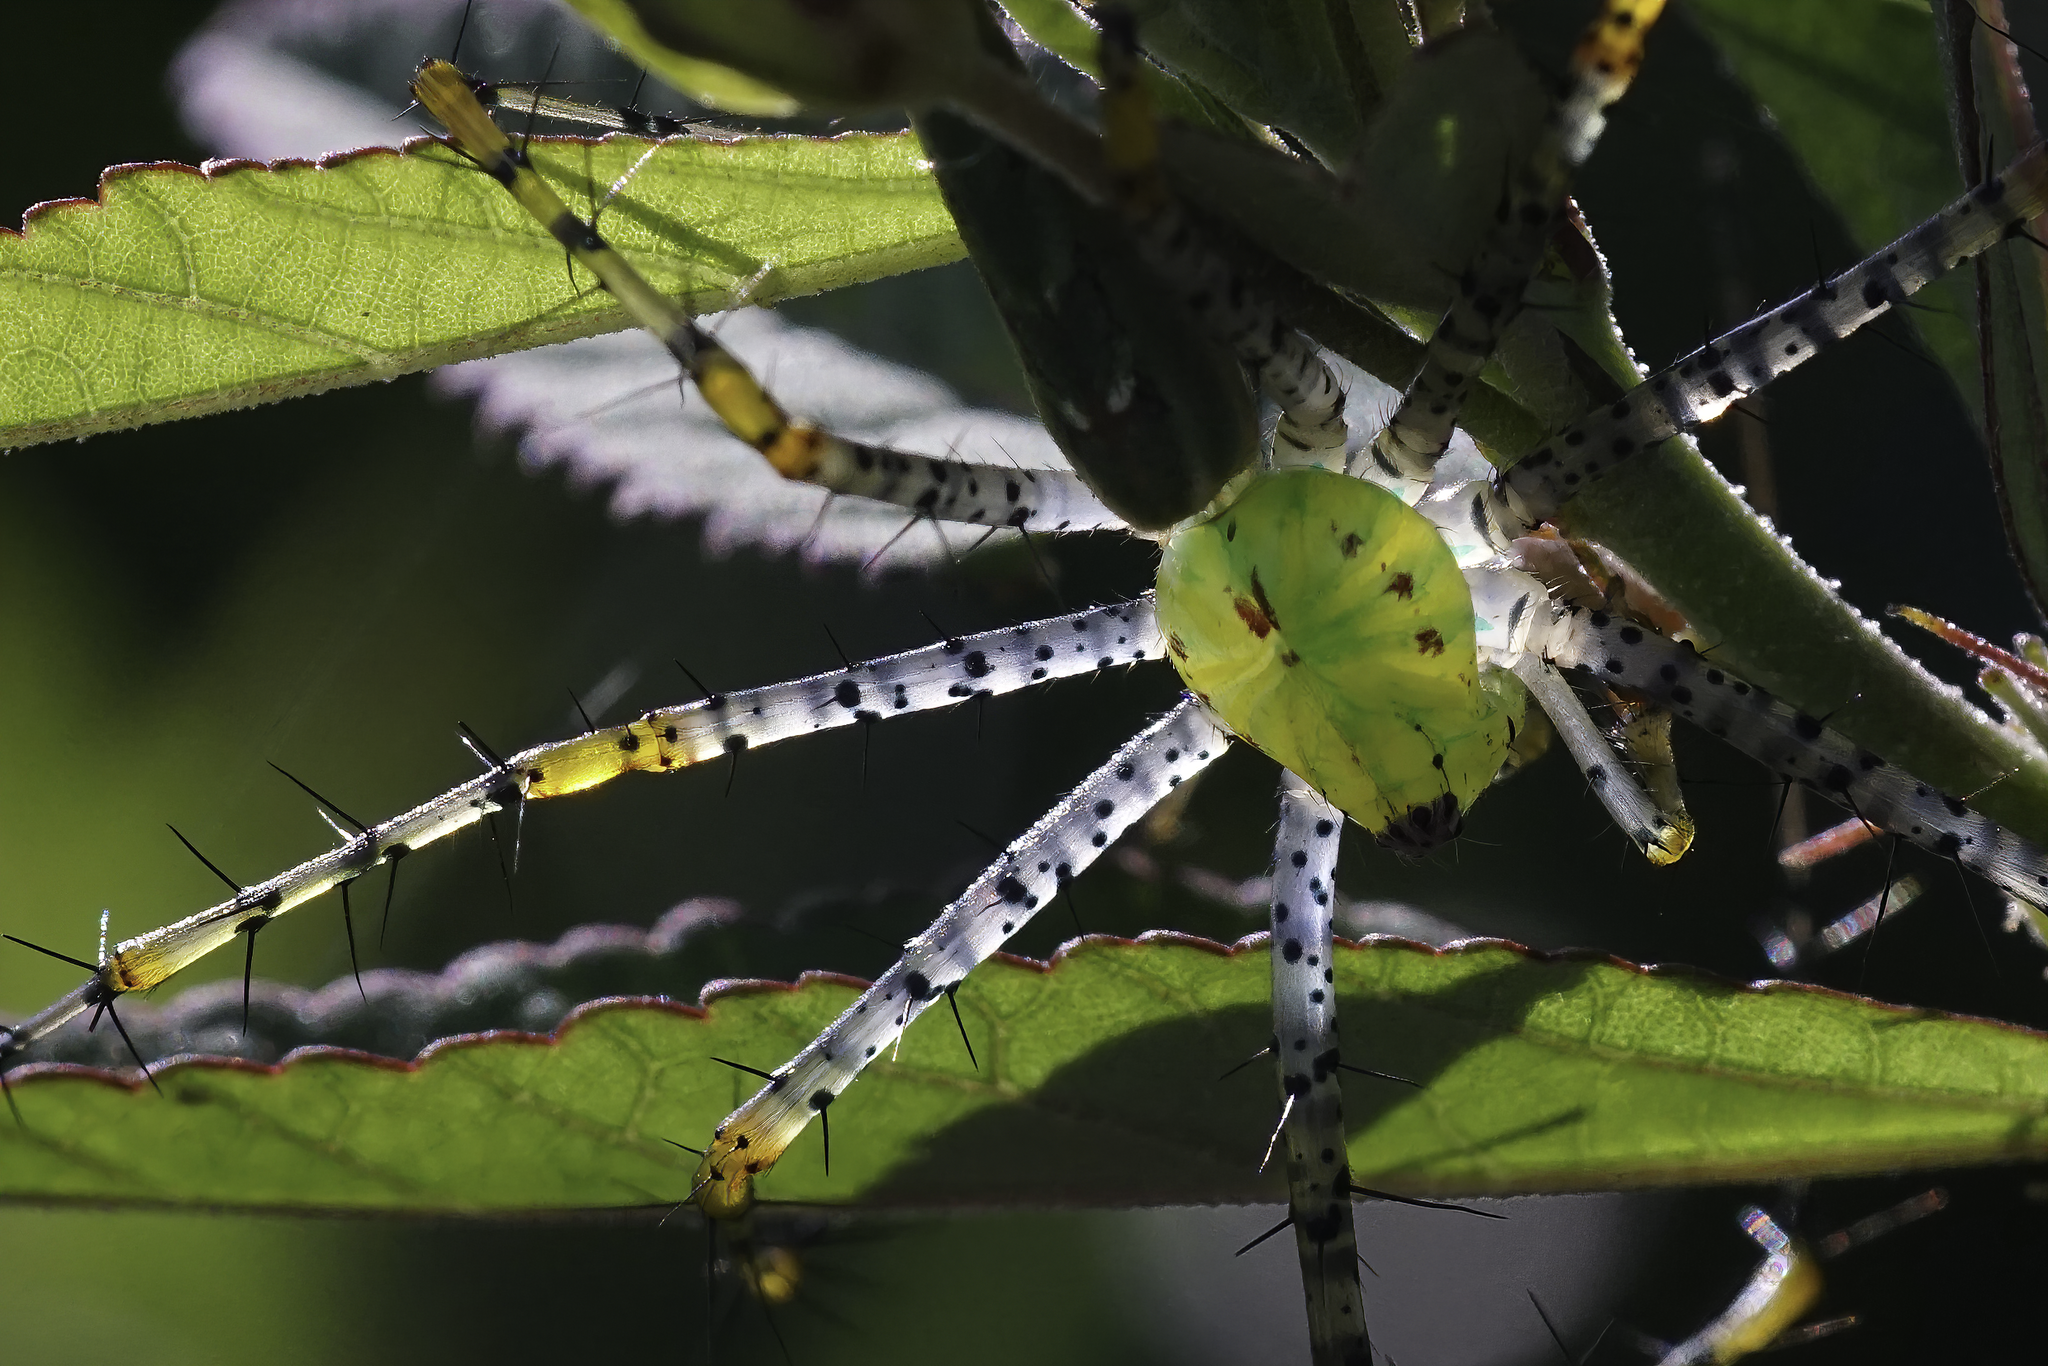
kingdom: Animalia
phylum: Arthropoda
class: Arachnida
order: Araneae
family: Oxyopidae
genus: Peucetia
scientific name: Peucetia viridans
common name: Lynx spiders
